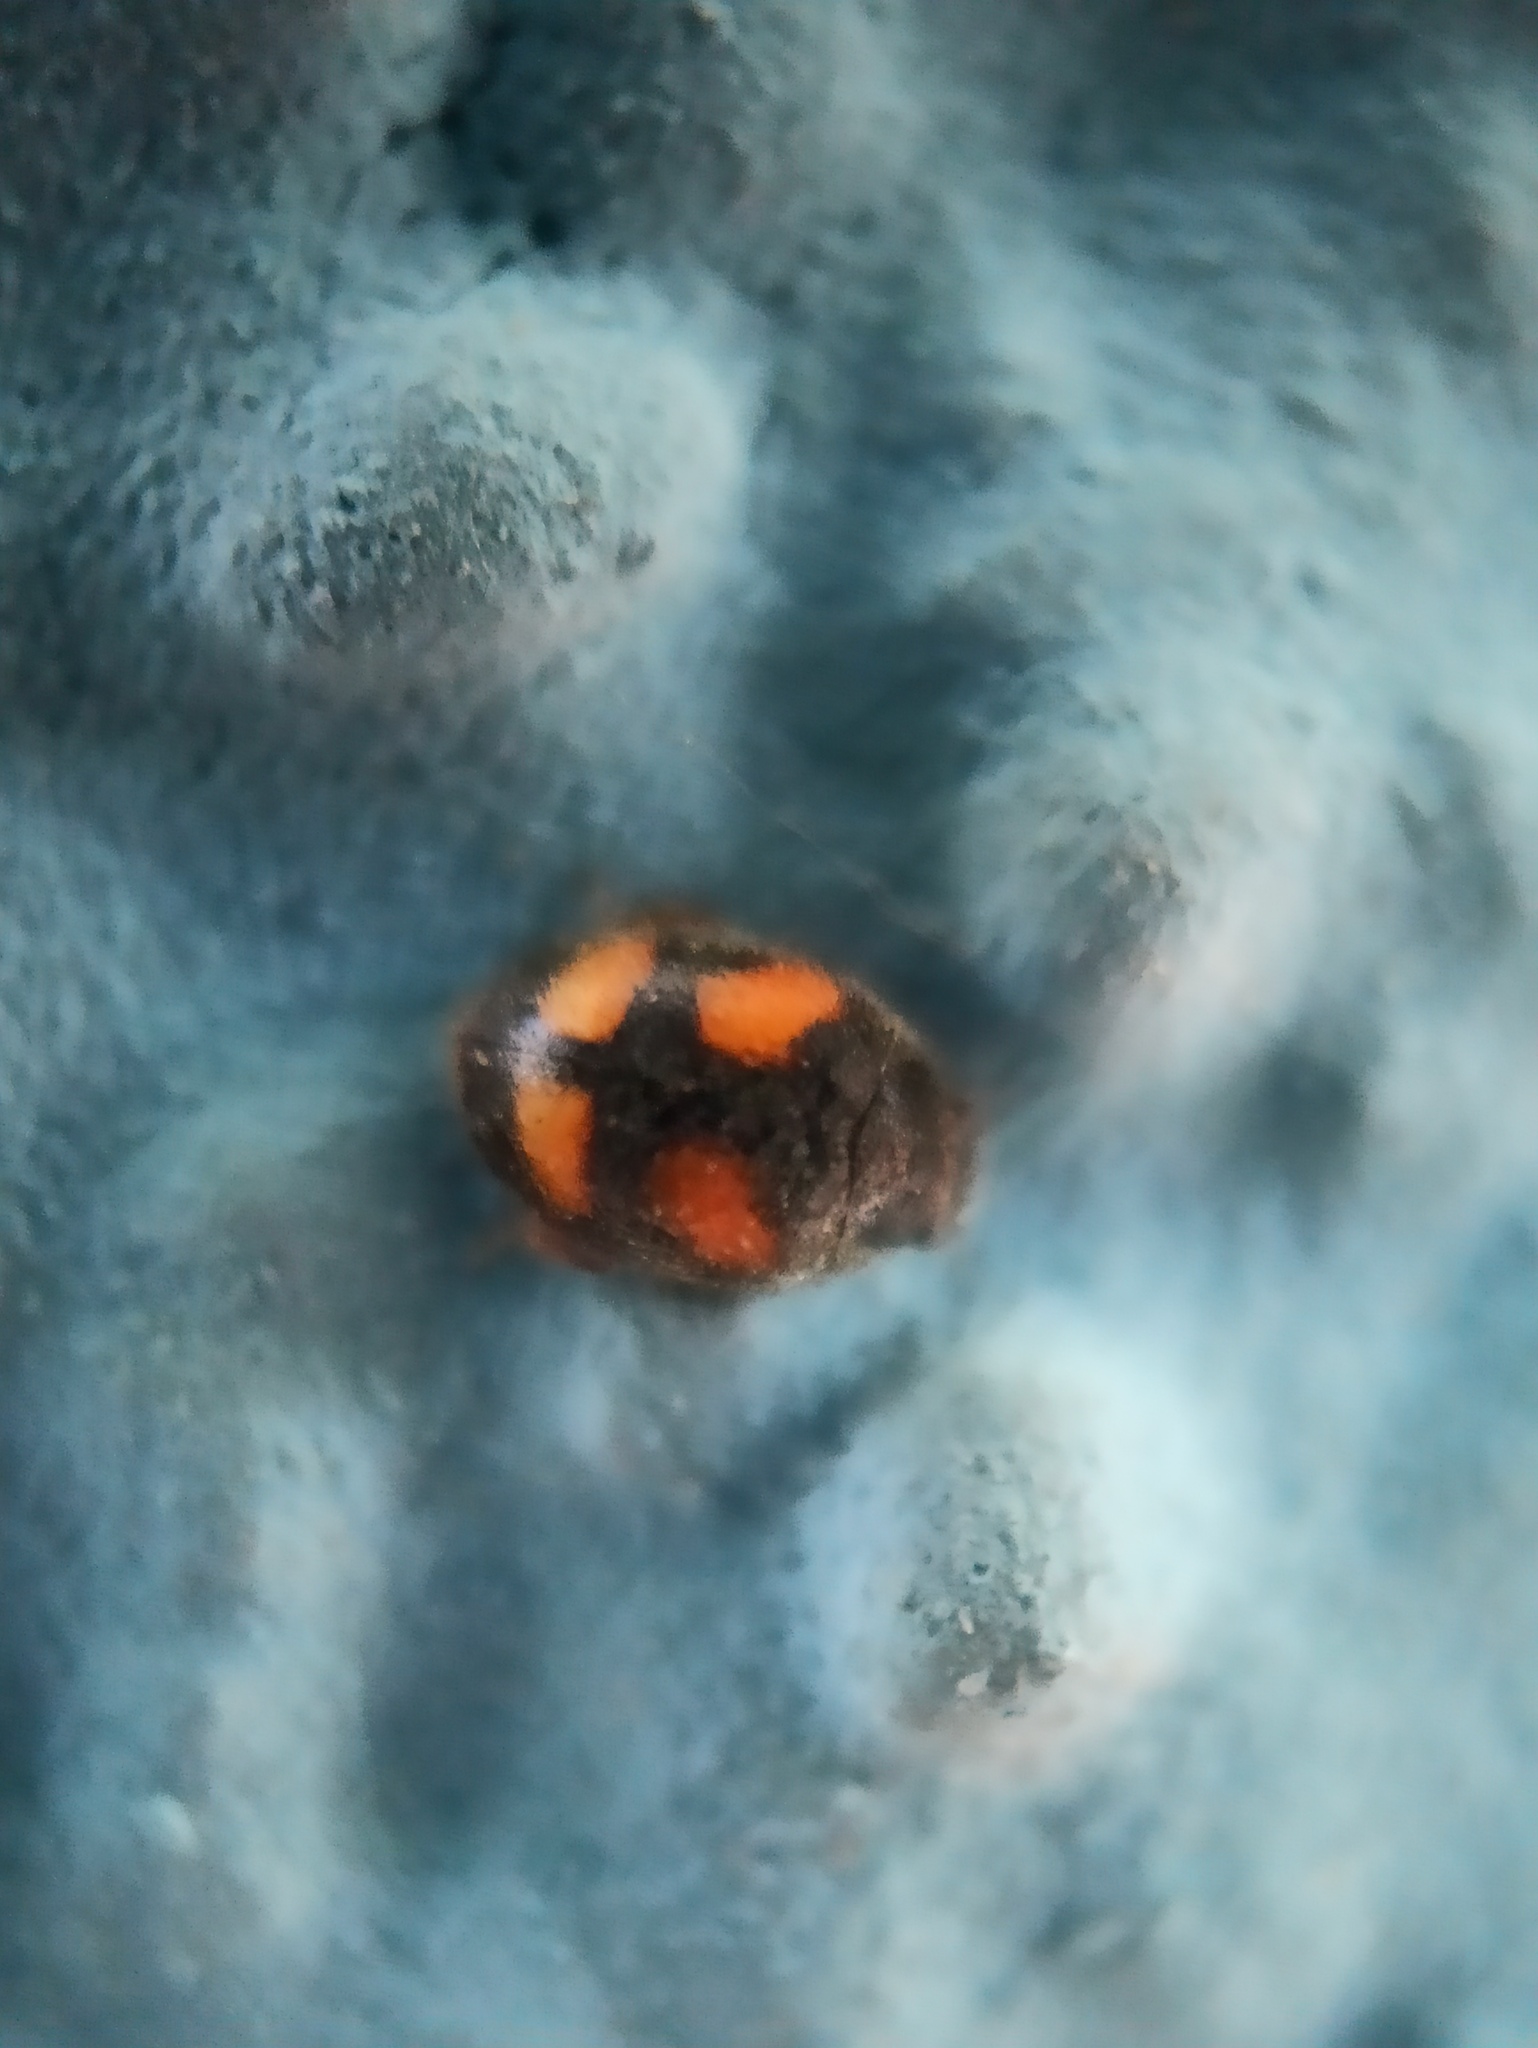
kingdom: Animalia
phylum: Arthropoda
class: Insecta
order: Coleoptera
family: Coccinellidae
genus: Nephus
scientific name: Nephus quadrimaculatus
